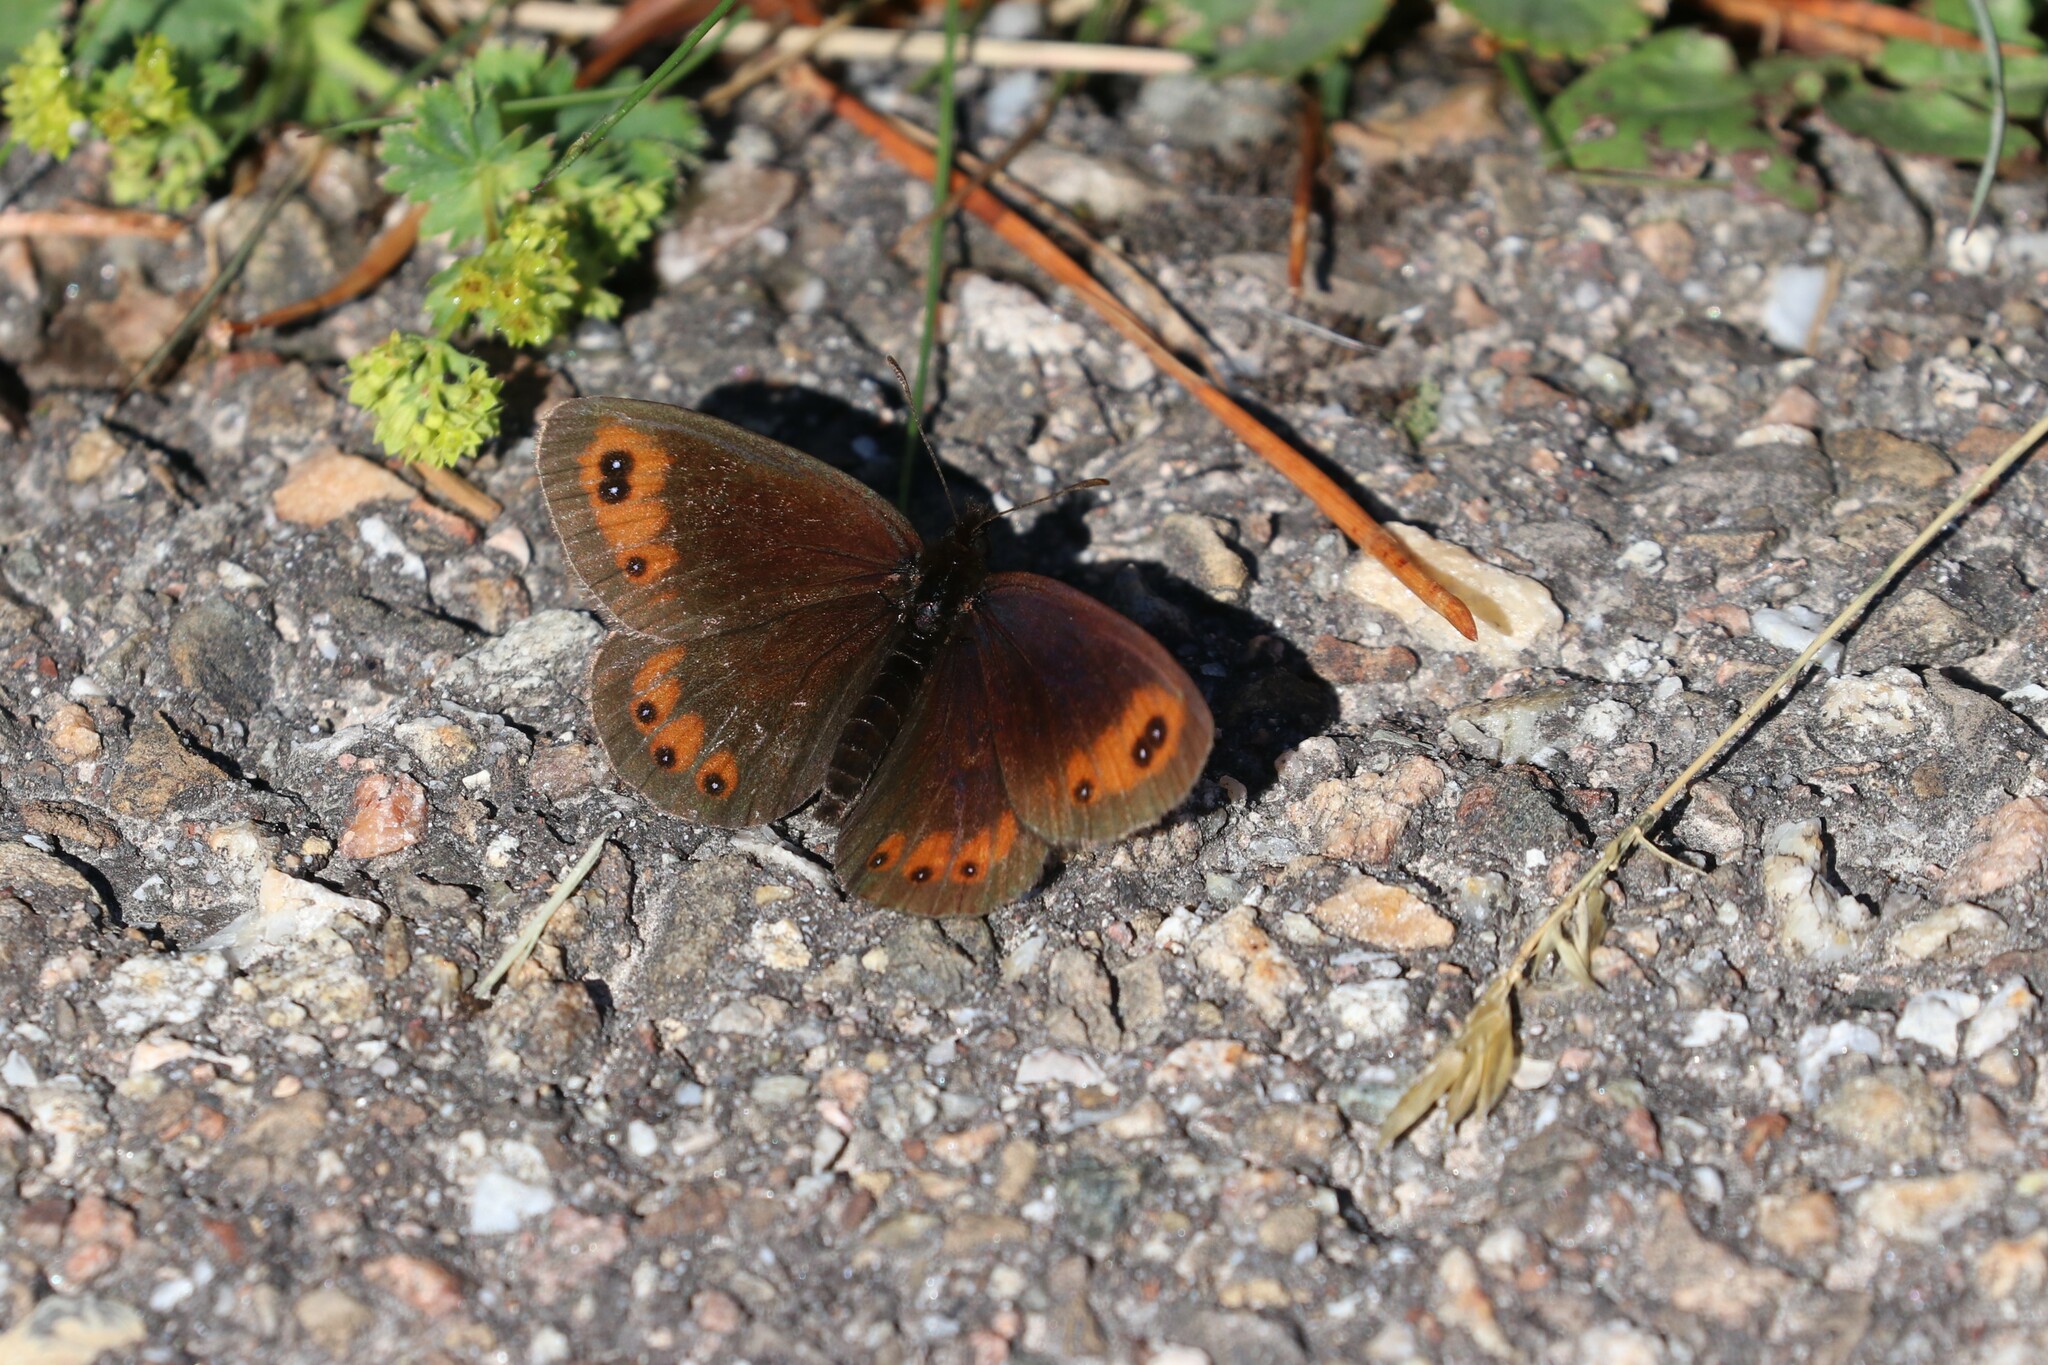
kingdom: Animalia
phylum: Arthropoda
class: Insecta
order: Lepidoptera
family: Nymphalidae
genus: Erebia
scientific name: Erebia meolans
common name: Piedmont ringlet
